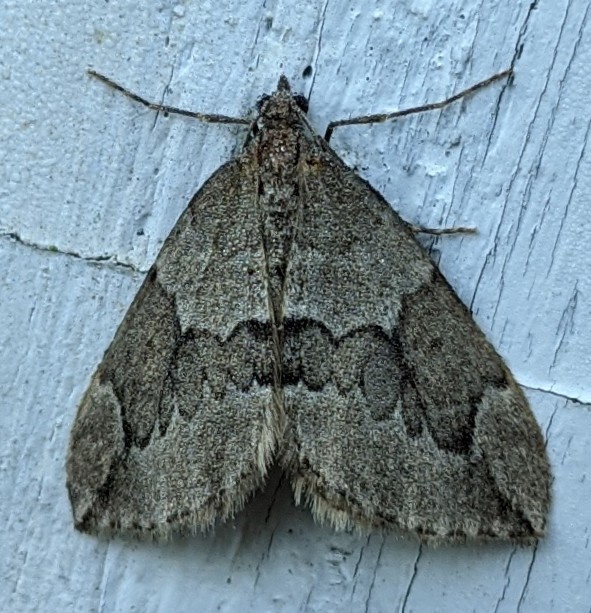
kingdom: Animalia
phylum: Arthropoda
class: Insecta
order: Lepidoptera
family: Geometridae
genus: Thera
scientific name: Thera juniperata
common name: Juniper carpet
